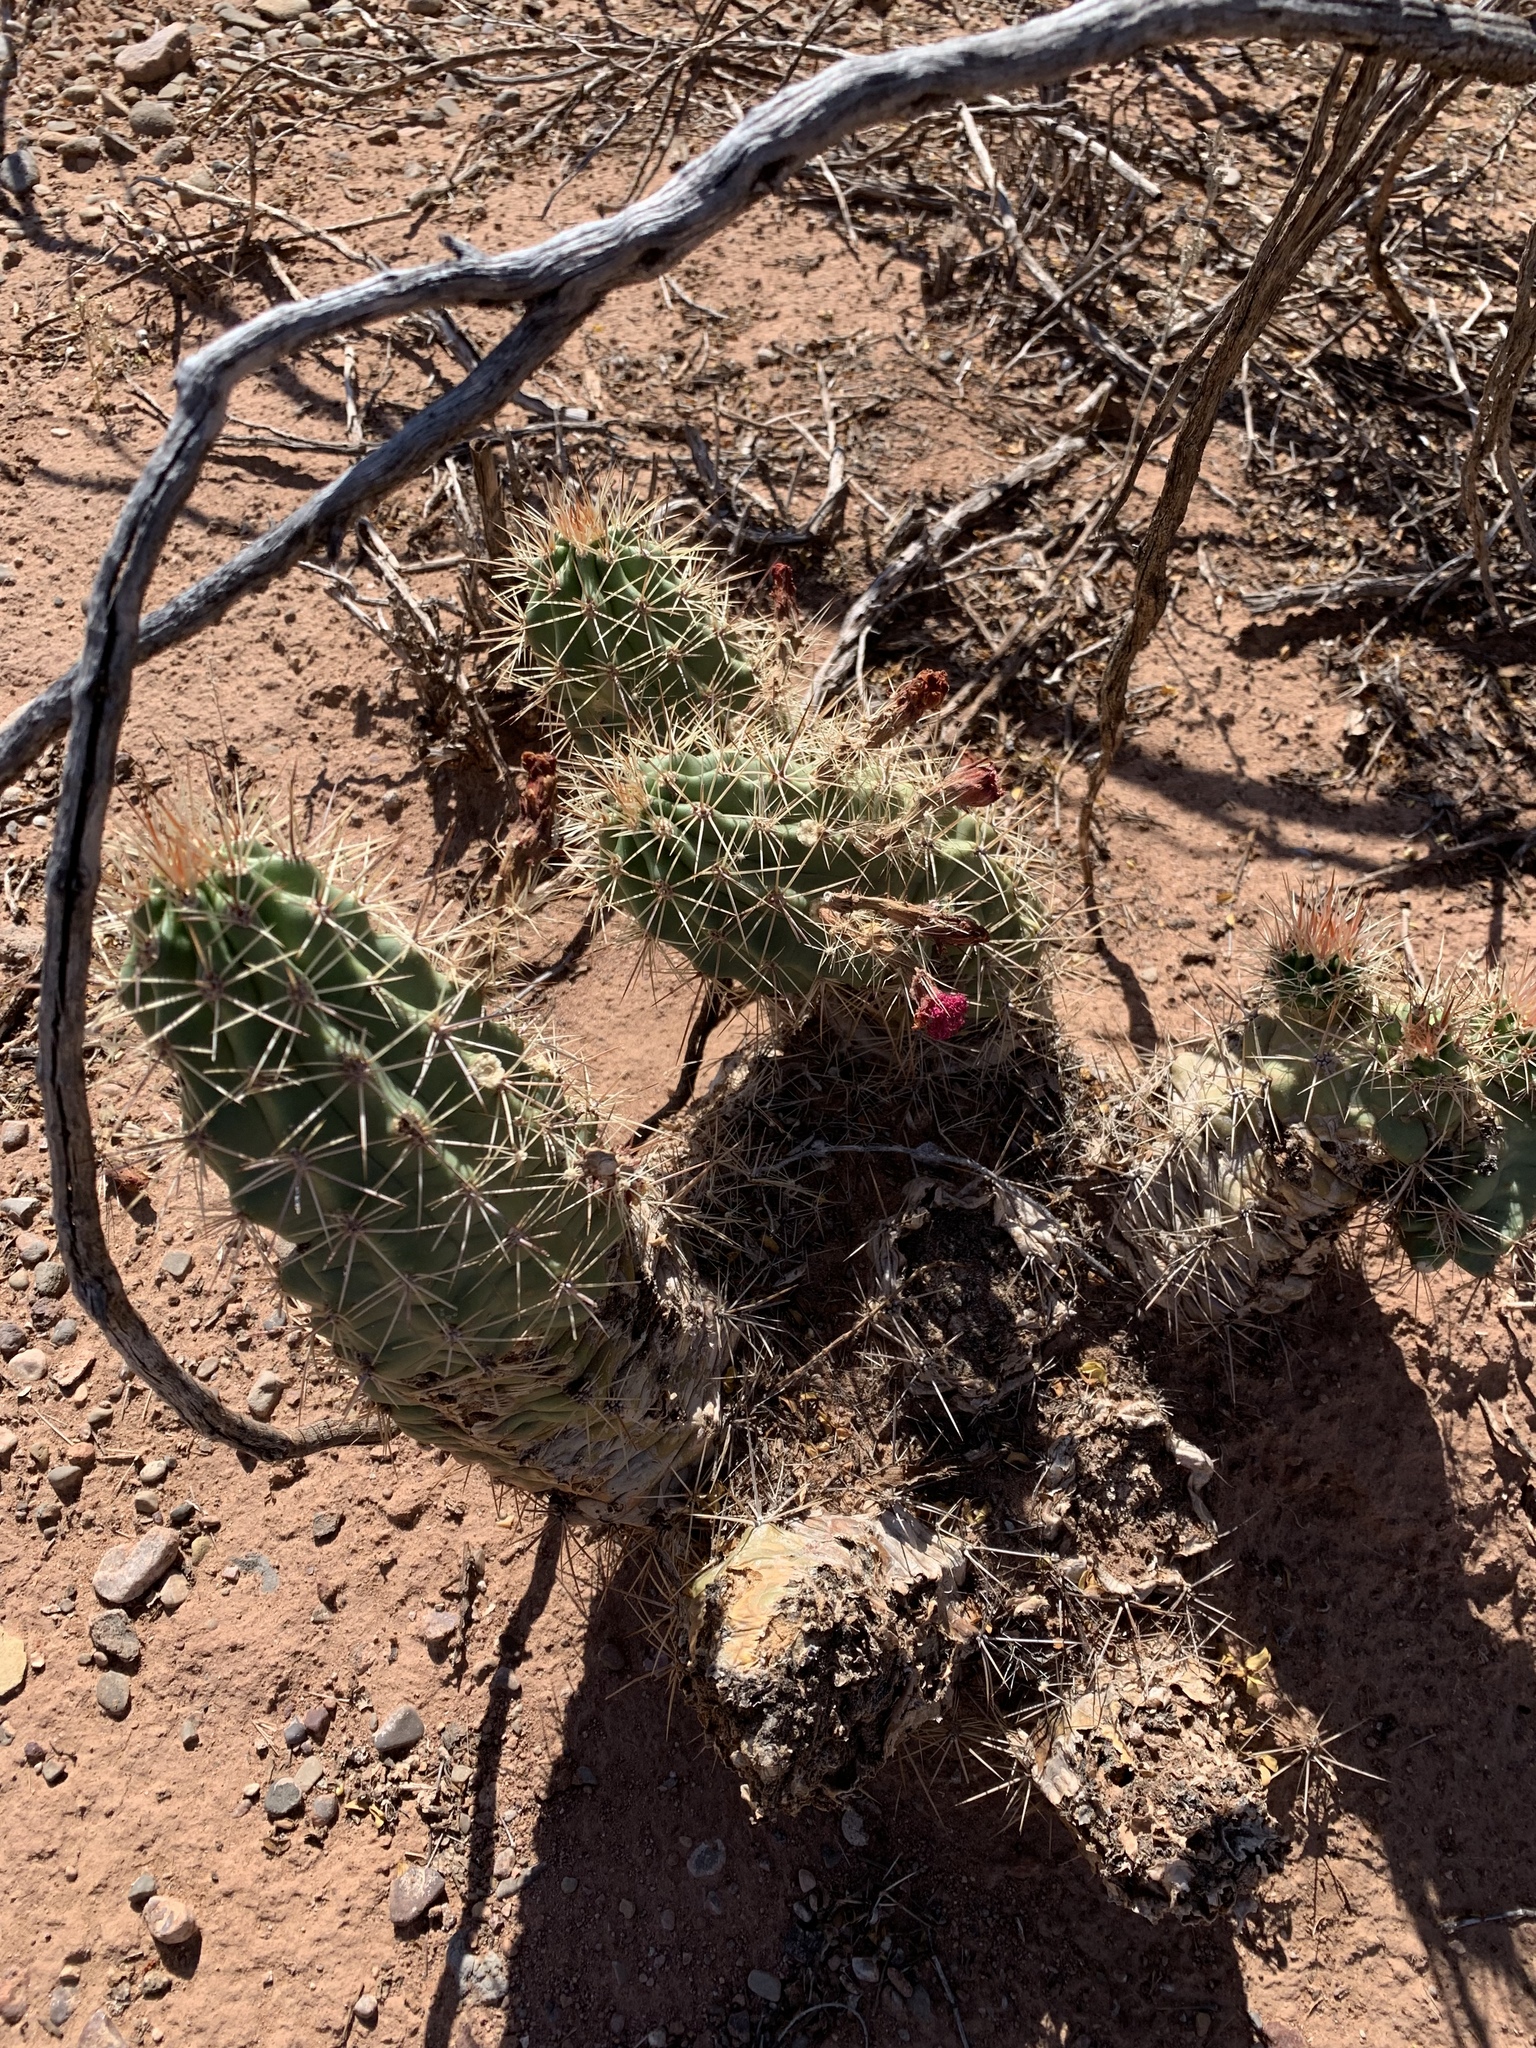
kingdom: Plantae
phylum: Tracheophyta
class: Magnoliopsida
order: Caryophyllales
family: Cactaceae
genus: Echinocereus
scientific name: Echinocereus coccineus
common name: Scarlet hedgehog cactus
